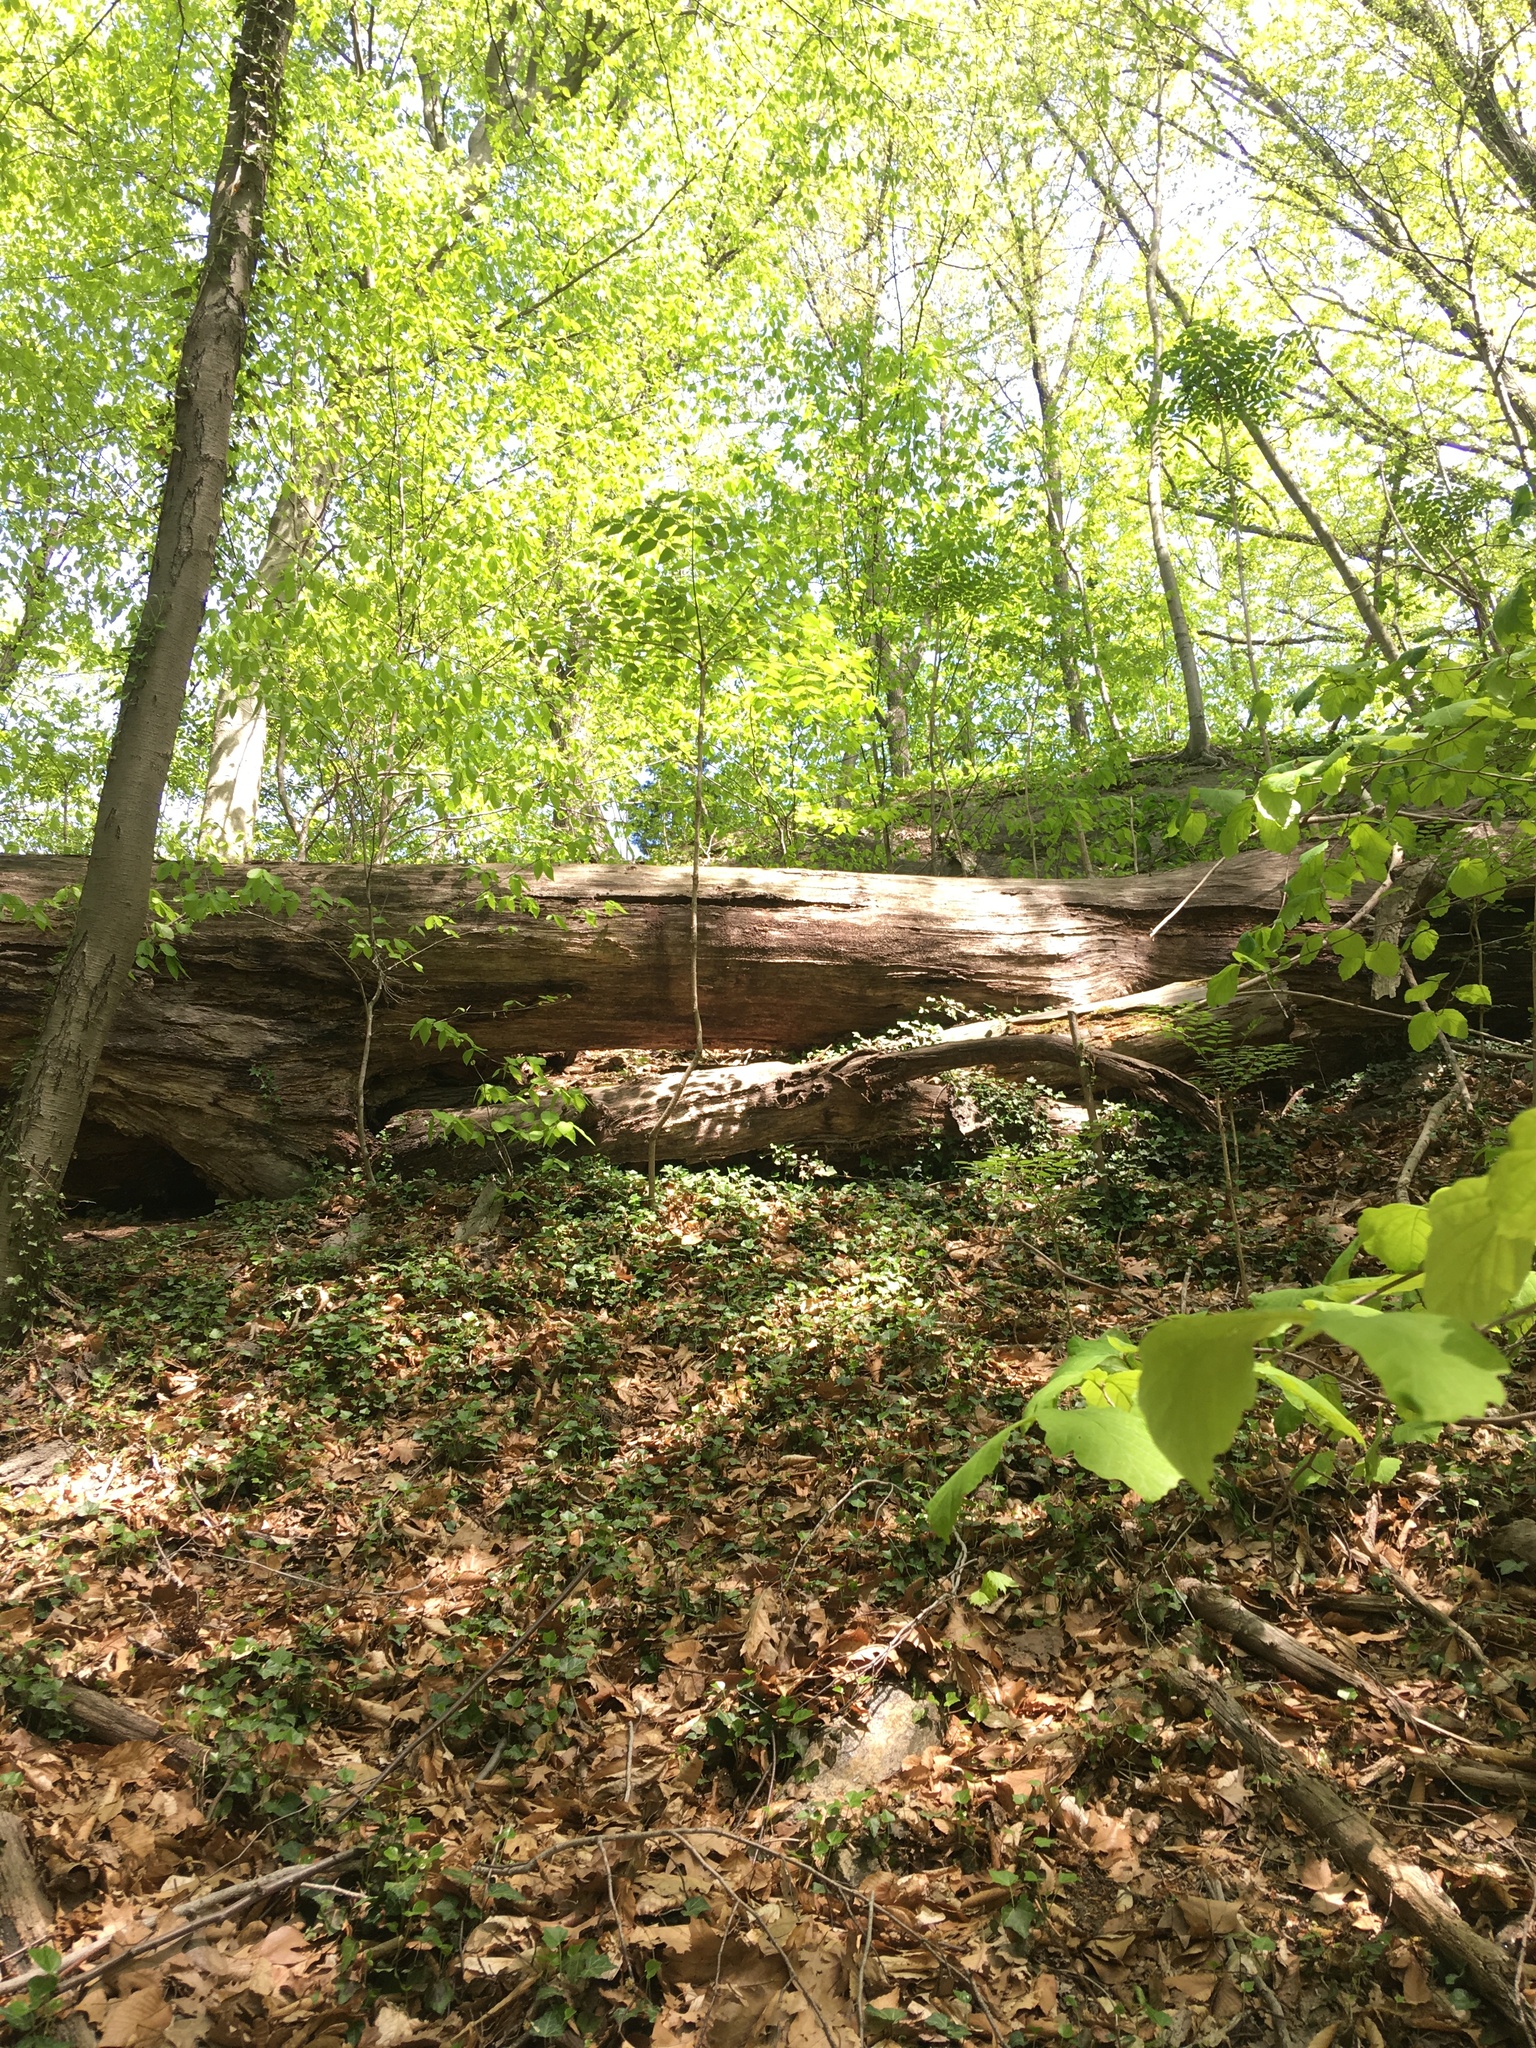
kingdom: Plantae
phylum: Tracheophyta
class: Magnoliopsida
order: Apiales
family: Araliaceae
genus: Hedera
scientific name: Hedera helix
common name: Ivy
